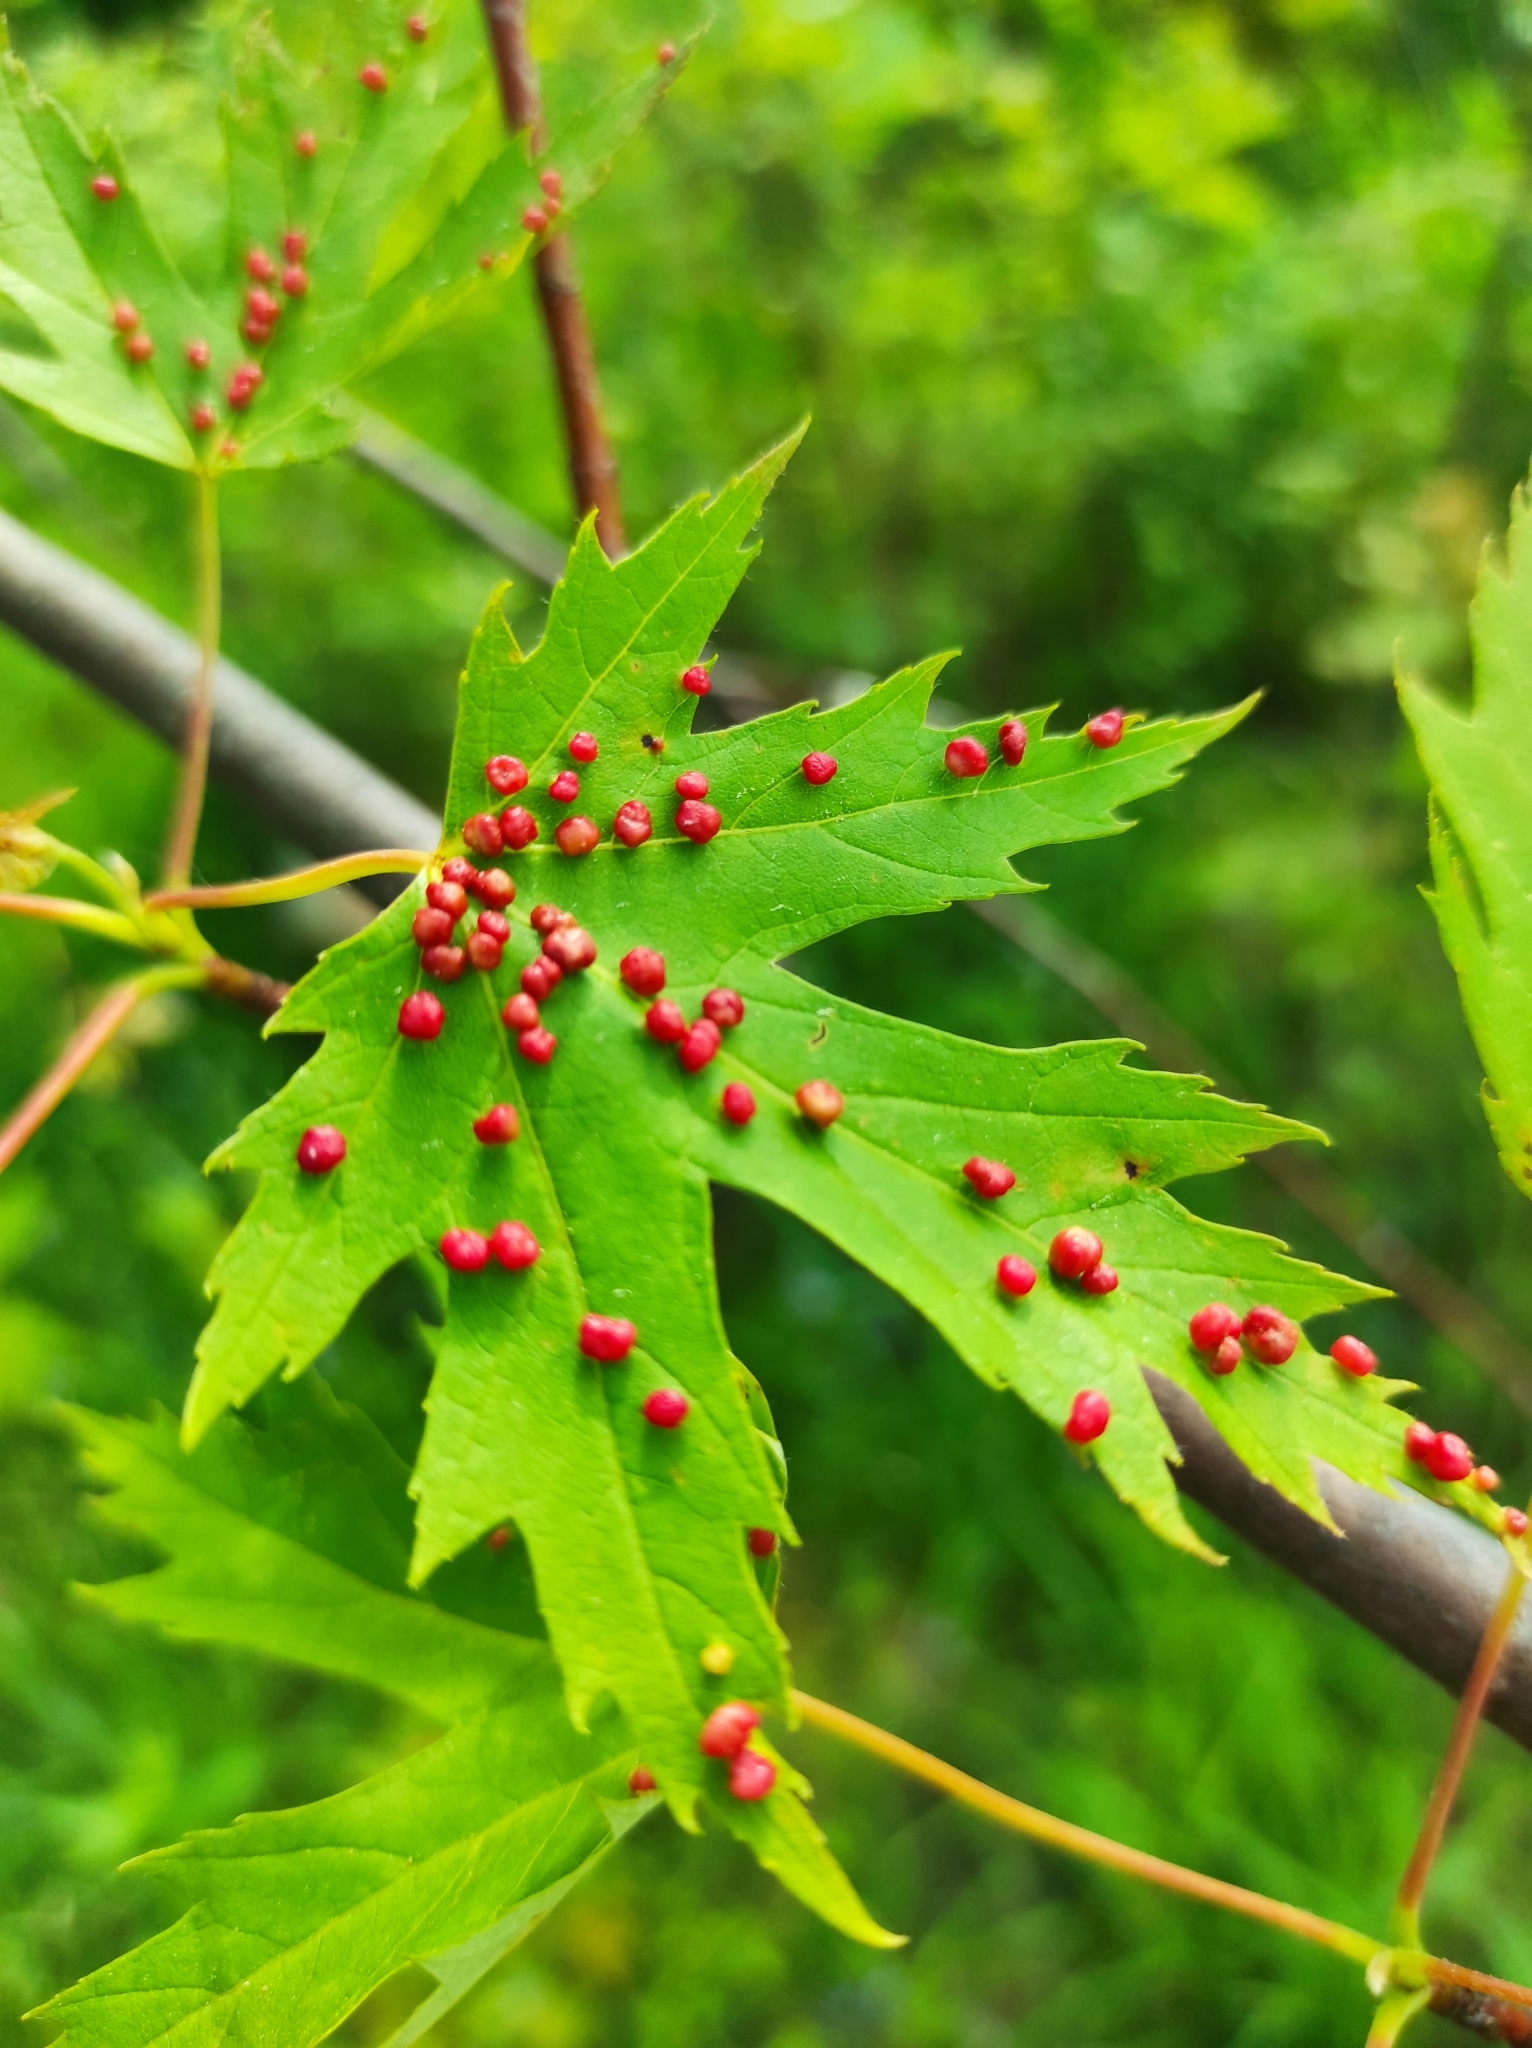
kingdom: Animalia
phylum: Arthropoda
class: Arachnida
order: Trombidiformes
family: Eriophyidae
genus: Vasates
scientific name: Vasates quadripedes
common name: Maple bladder gall mite
